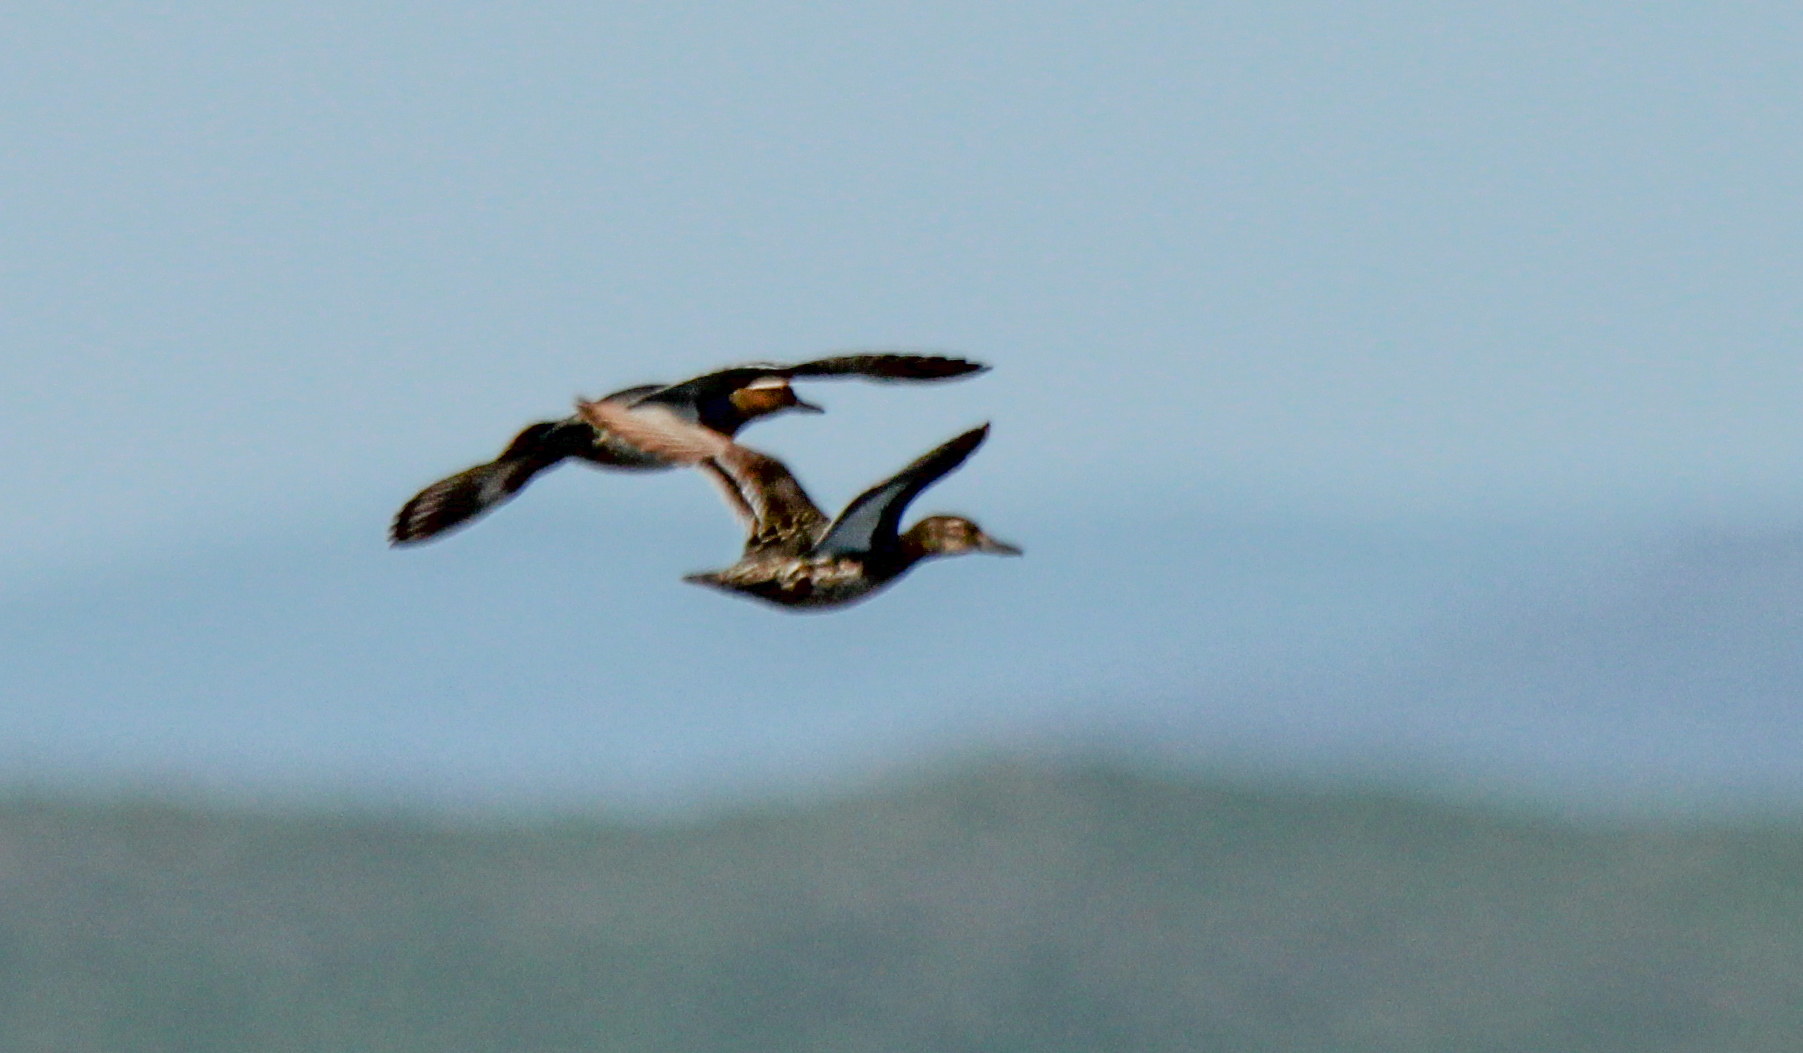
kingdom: Animalia
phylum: Chordata
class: Aves
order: Anseriformes
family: Anatidae
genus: Spatula
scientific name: Spatula querquedula
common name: Garganey
